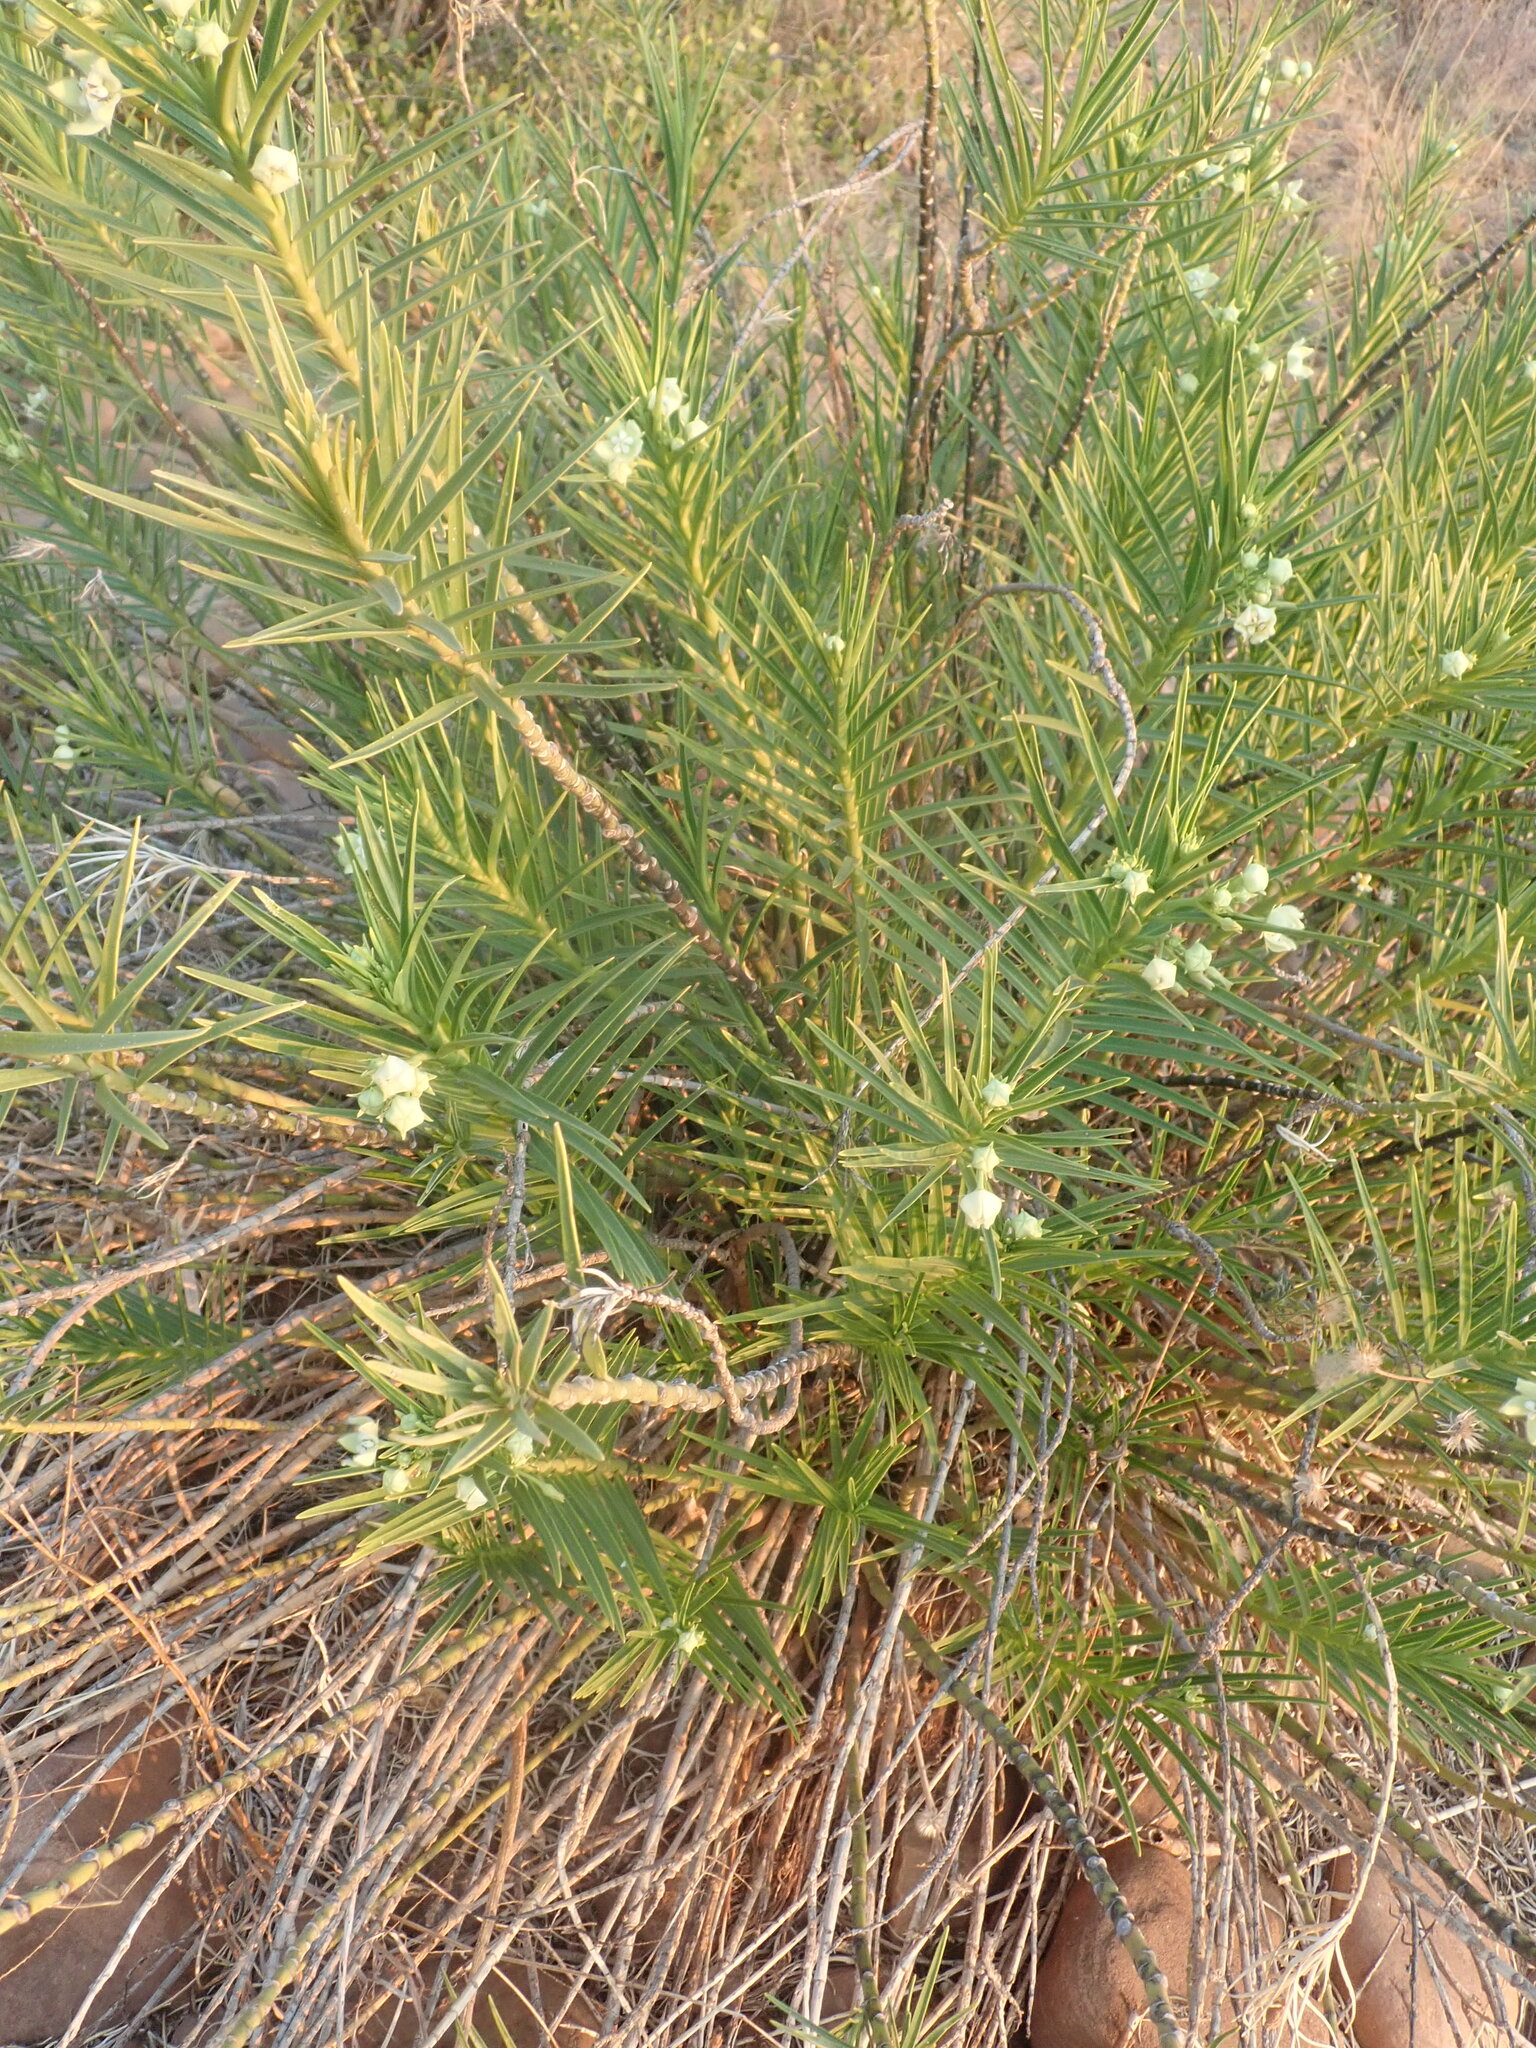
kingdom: Plantae
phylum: Tracheophyta
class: Magnoliopsida
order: Gentianales
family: Apocynaceae
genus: Kanahia
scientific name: Kanahia laniflora
